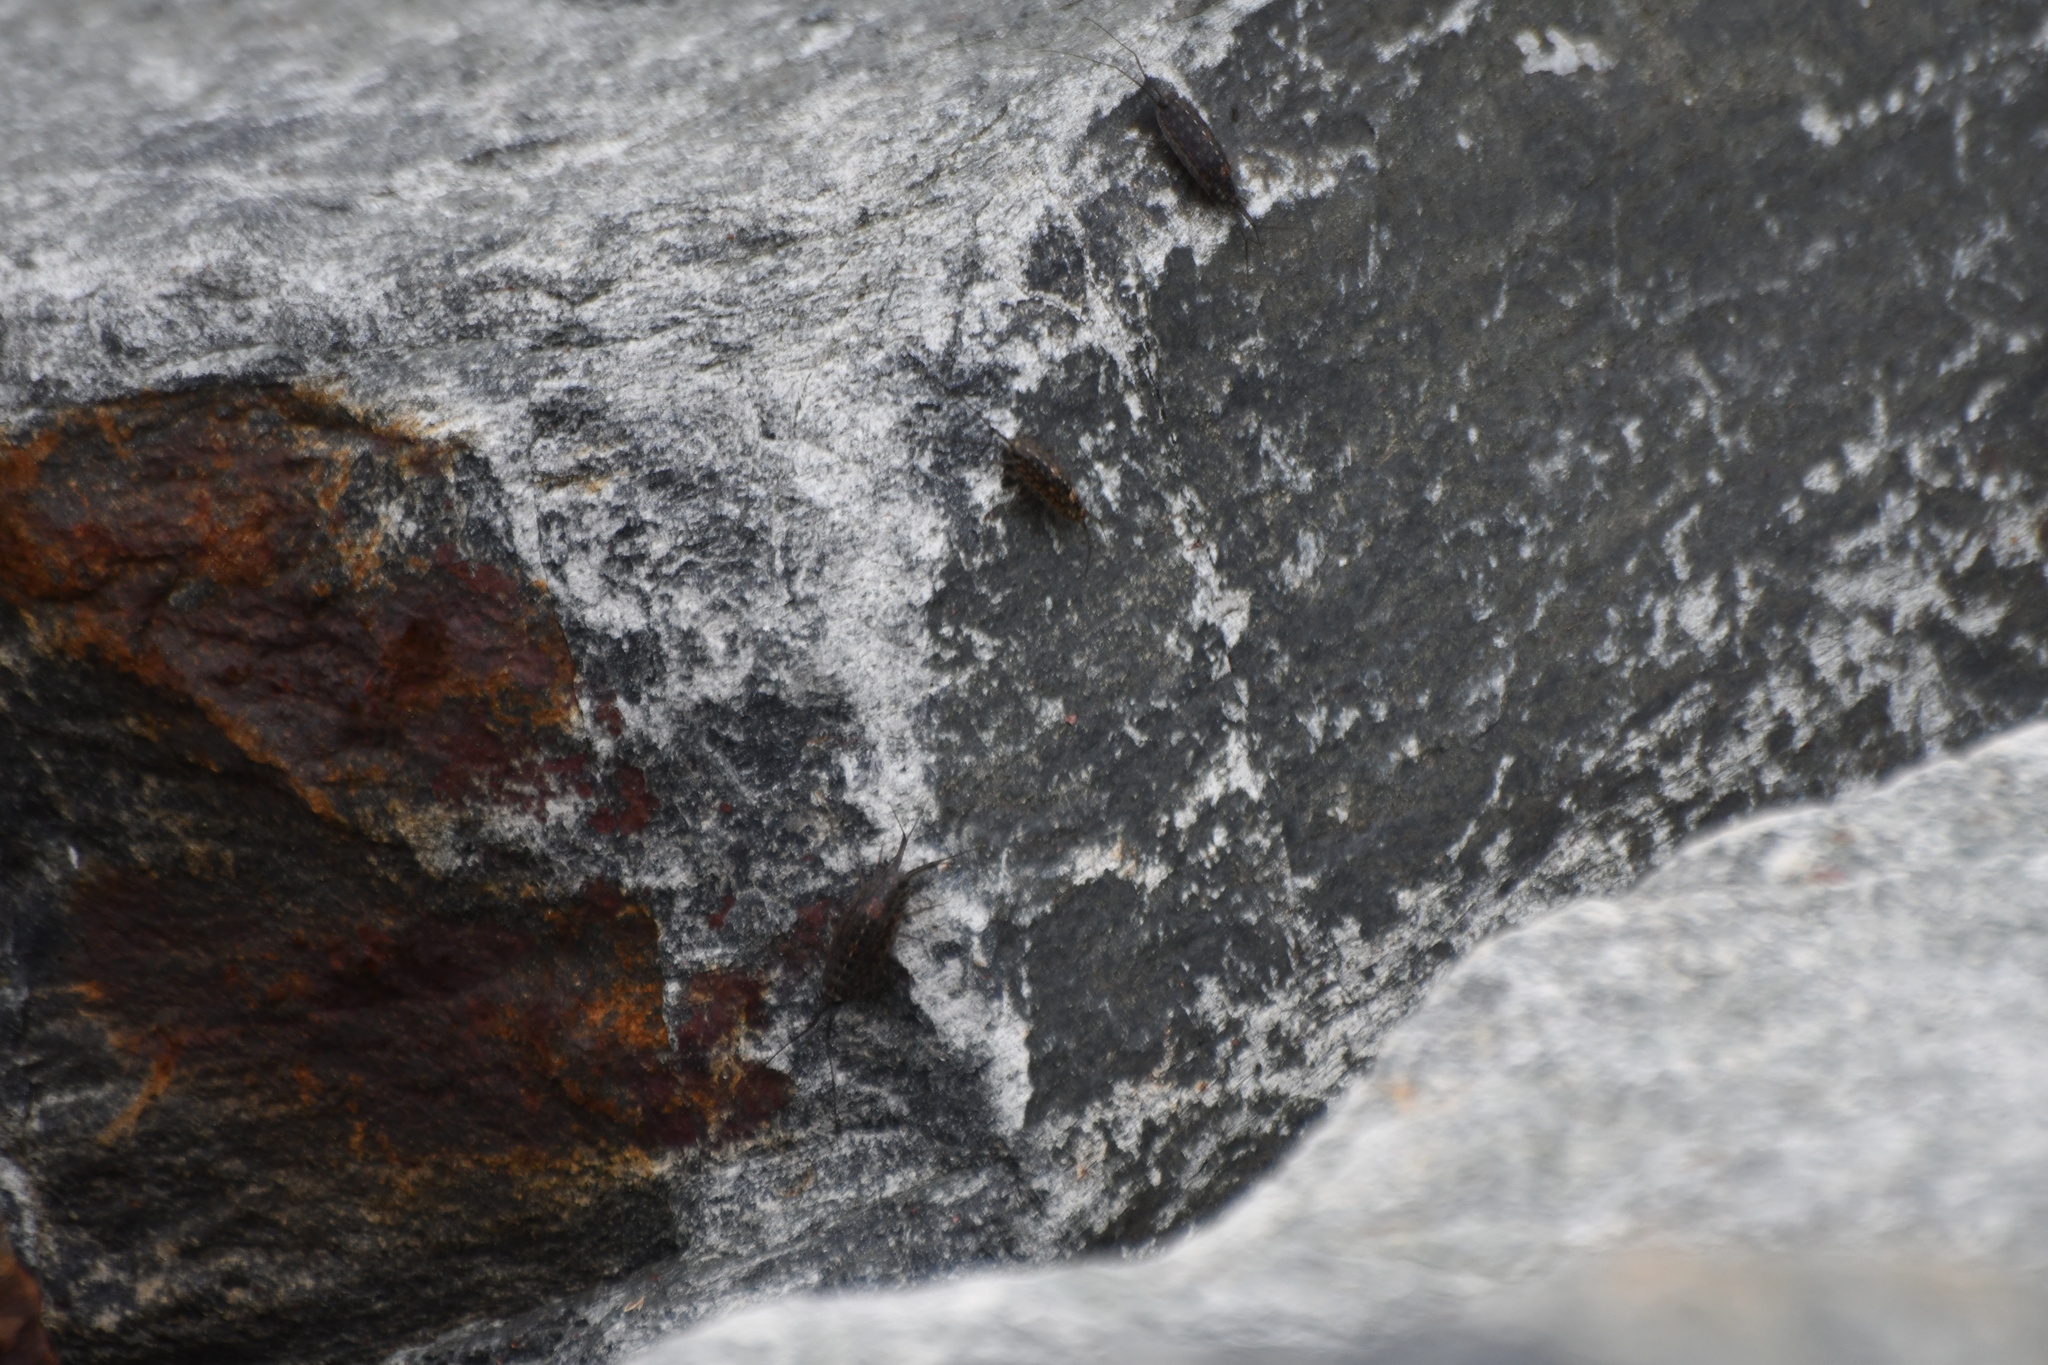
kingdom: Animalia
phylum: Arthropoda
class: Malacostraca
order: Isopoda
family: Ligiidae
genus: Ligia
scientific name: Ligia exotica
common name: Wharf roach
